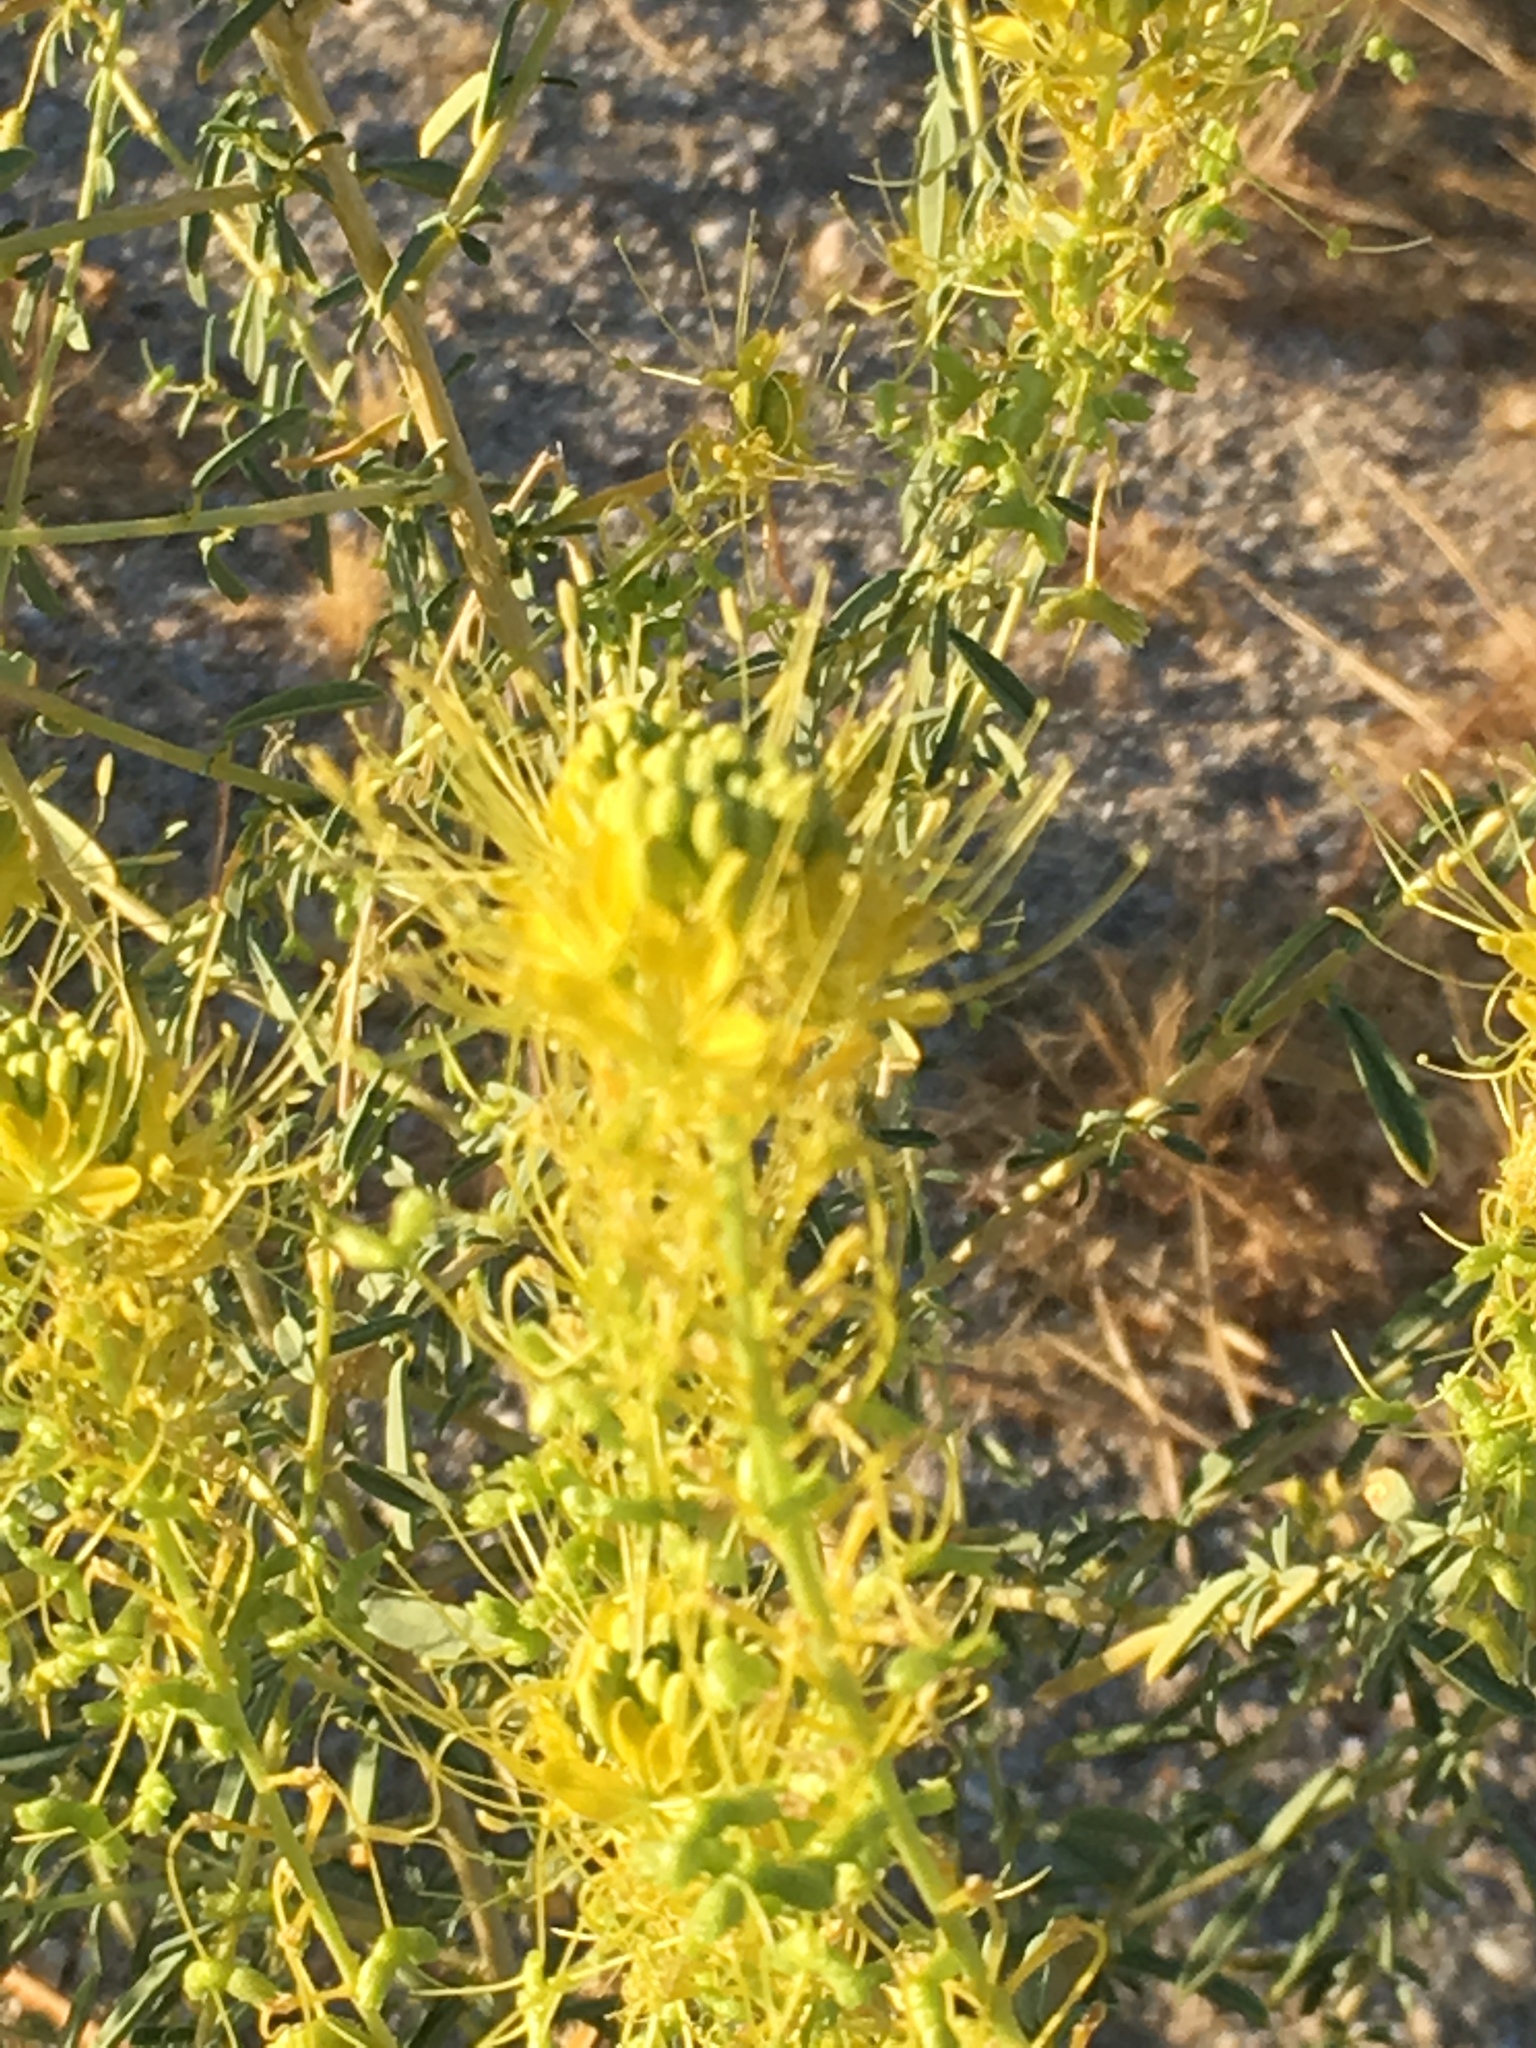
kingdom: Plantae
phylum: Tracheophyta
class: Magnoliopsida
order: Brassicales
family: Cleomaceae
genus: Cleomella
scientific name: Cleomella palmeri
